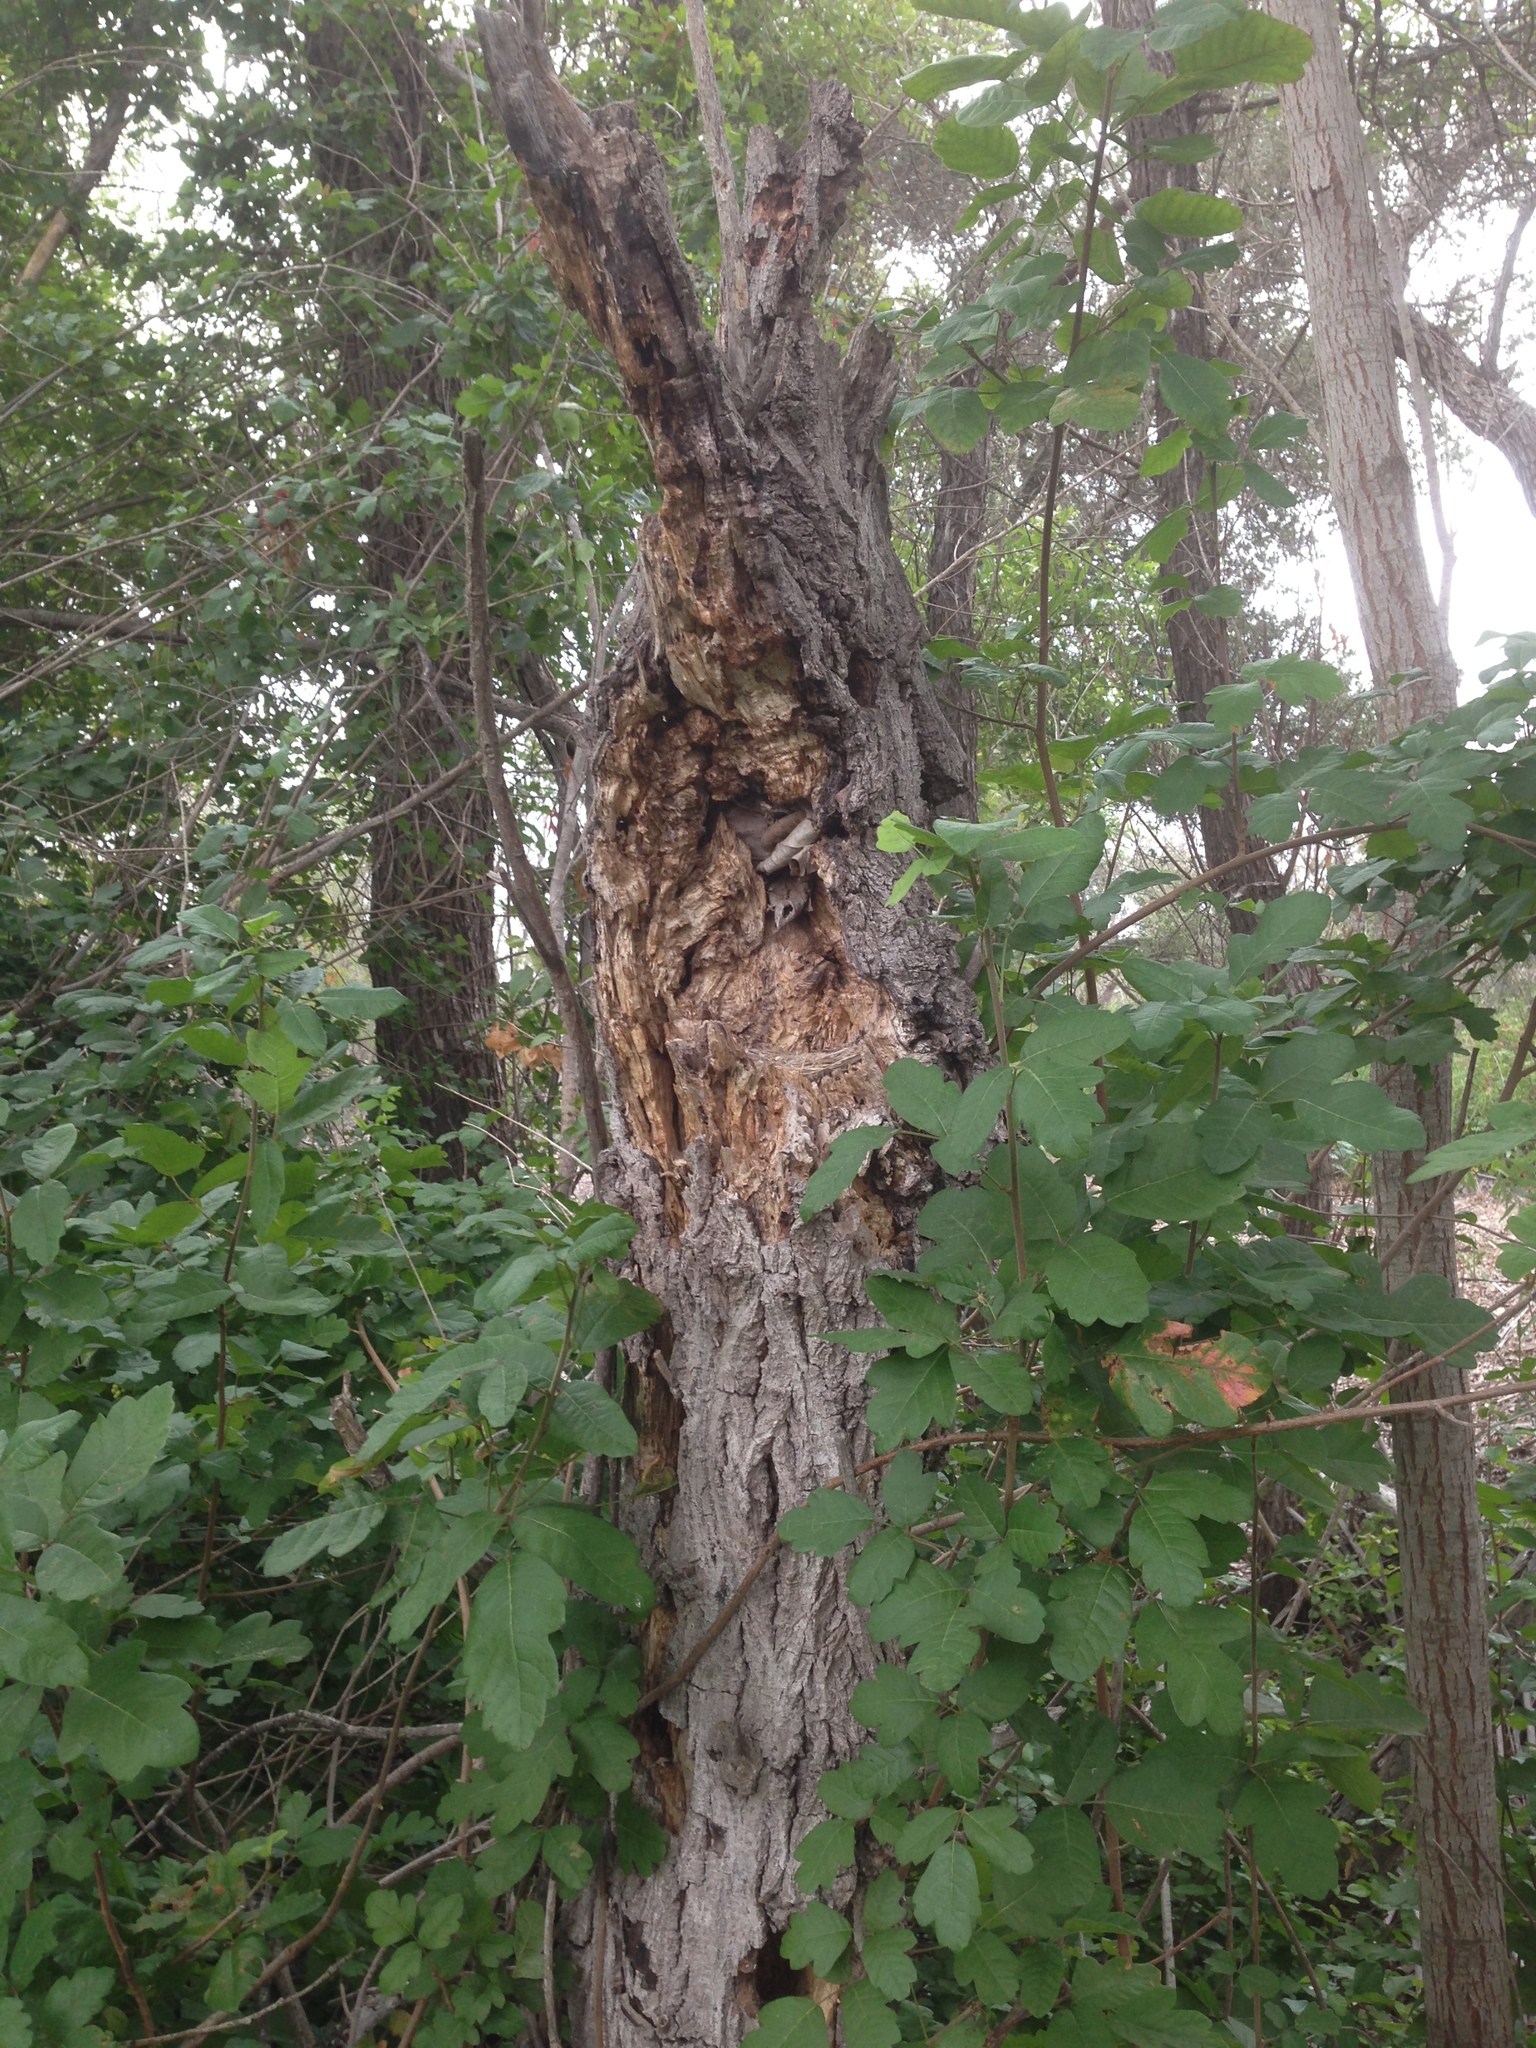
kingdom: Animalia
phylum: Chordata
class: Aves
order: Passeriformes
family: Tyrannidae
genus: Empidonax
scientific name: Empidonax difficilis
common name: Pacific-slope flycatcher
